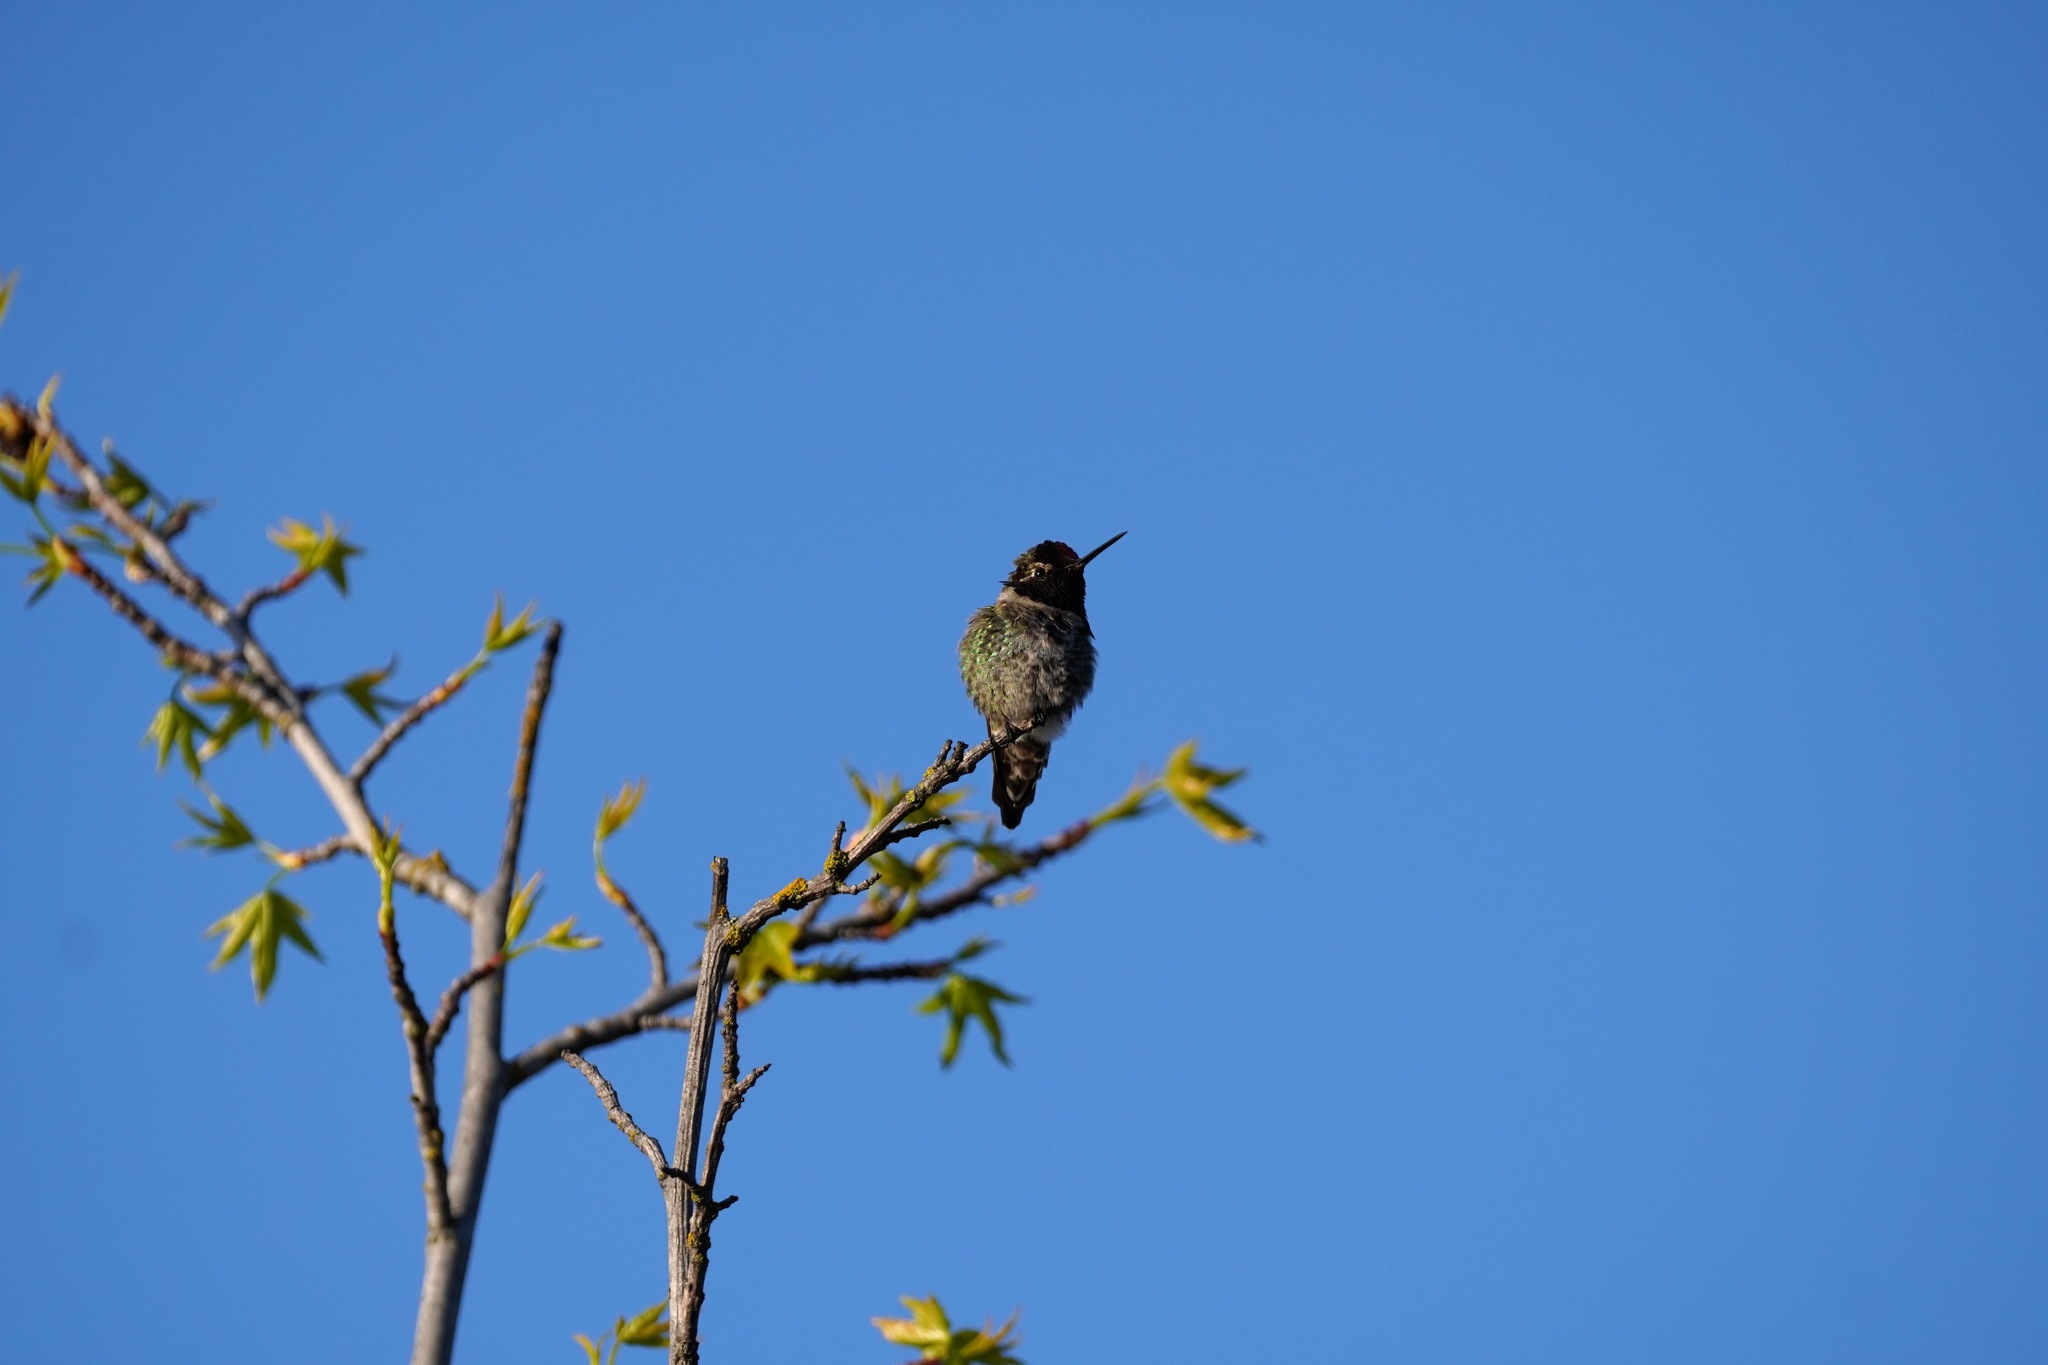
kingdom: Animalia
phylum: Chordata
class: Aves
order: Apodiformes
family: Trochilidae
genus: Calypte
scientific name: Calypte anna
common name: Anna's hummingbird
